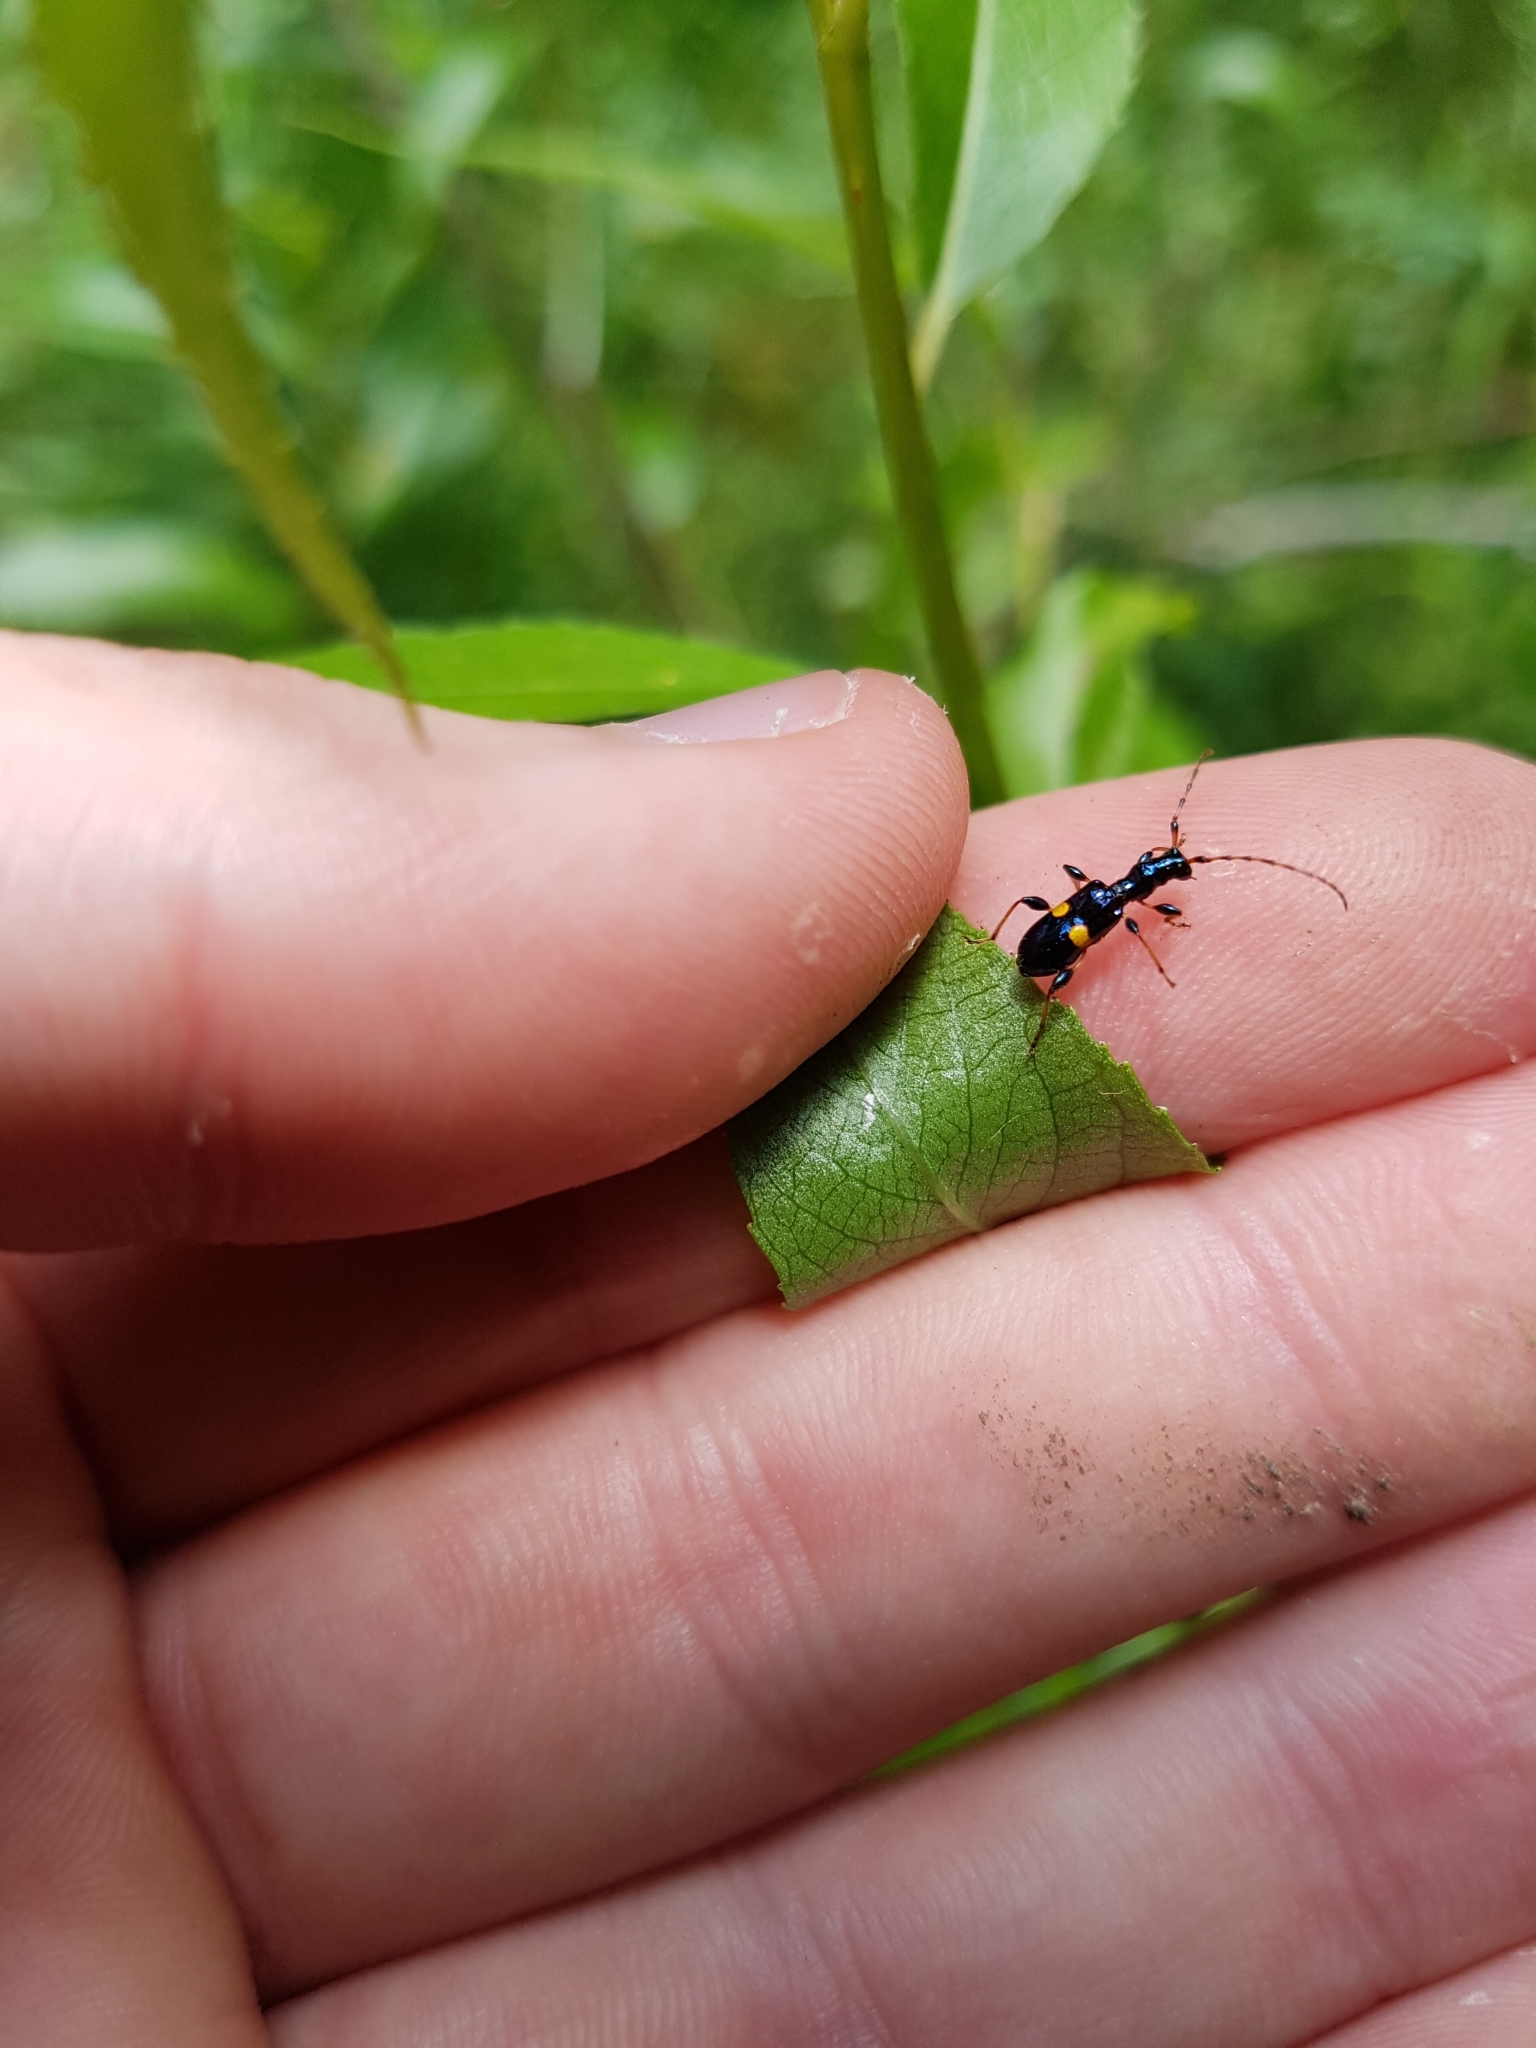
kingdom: Animalia
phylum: Arthropoda
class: Insecta
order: Coleoptera
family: Cerambycidae
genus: Zorion
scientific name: Zorion guttigerum
